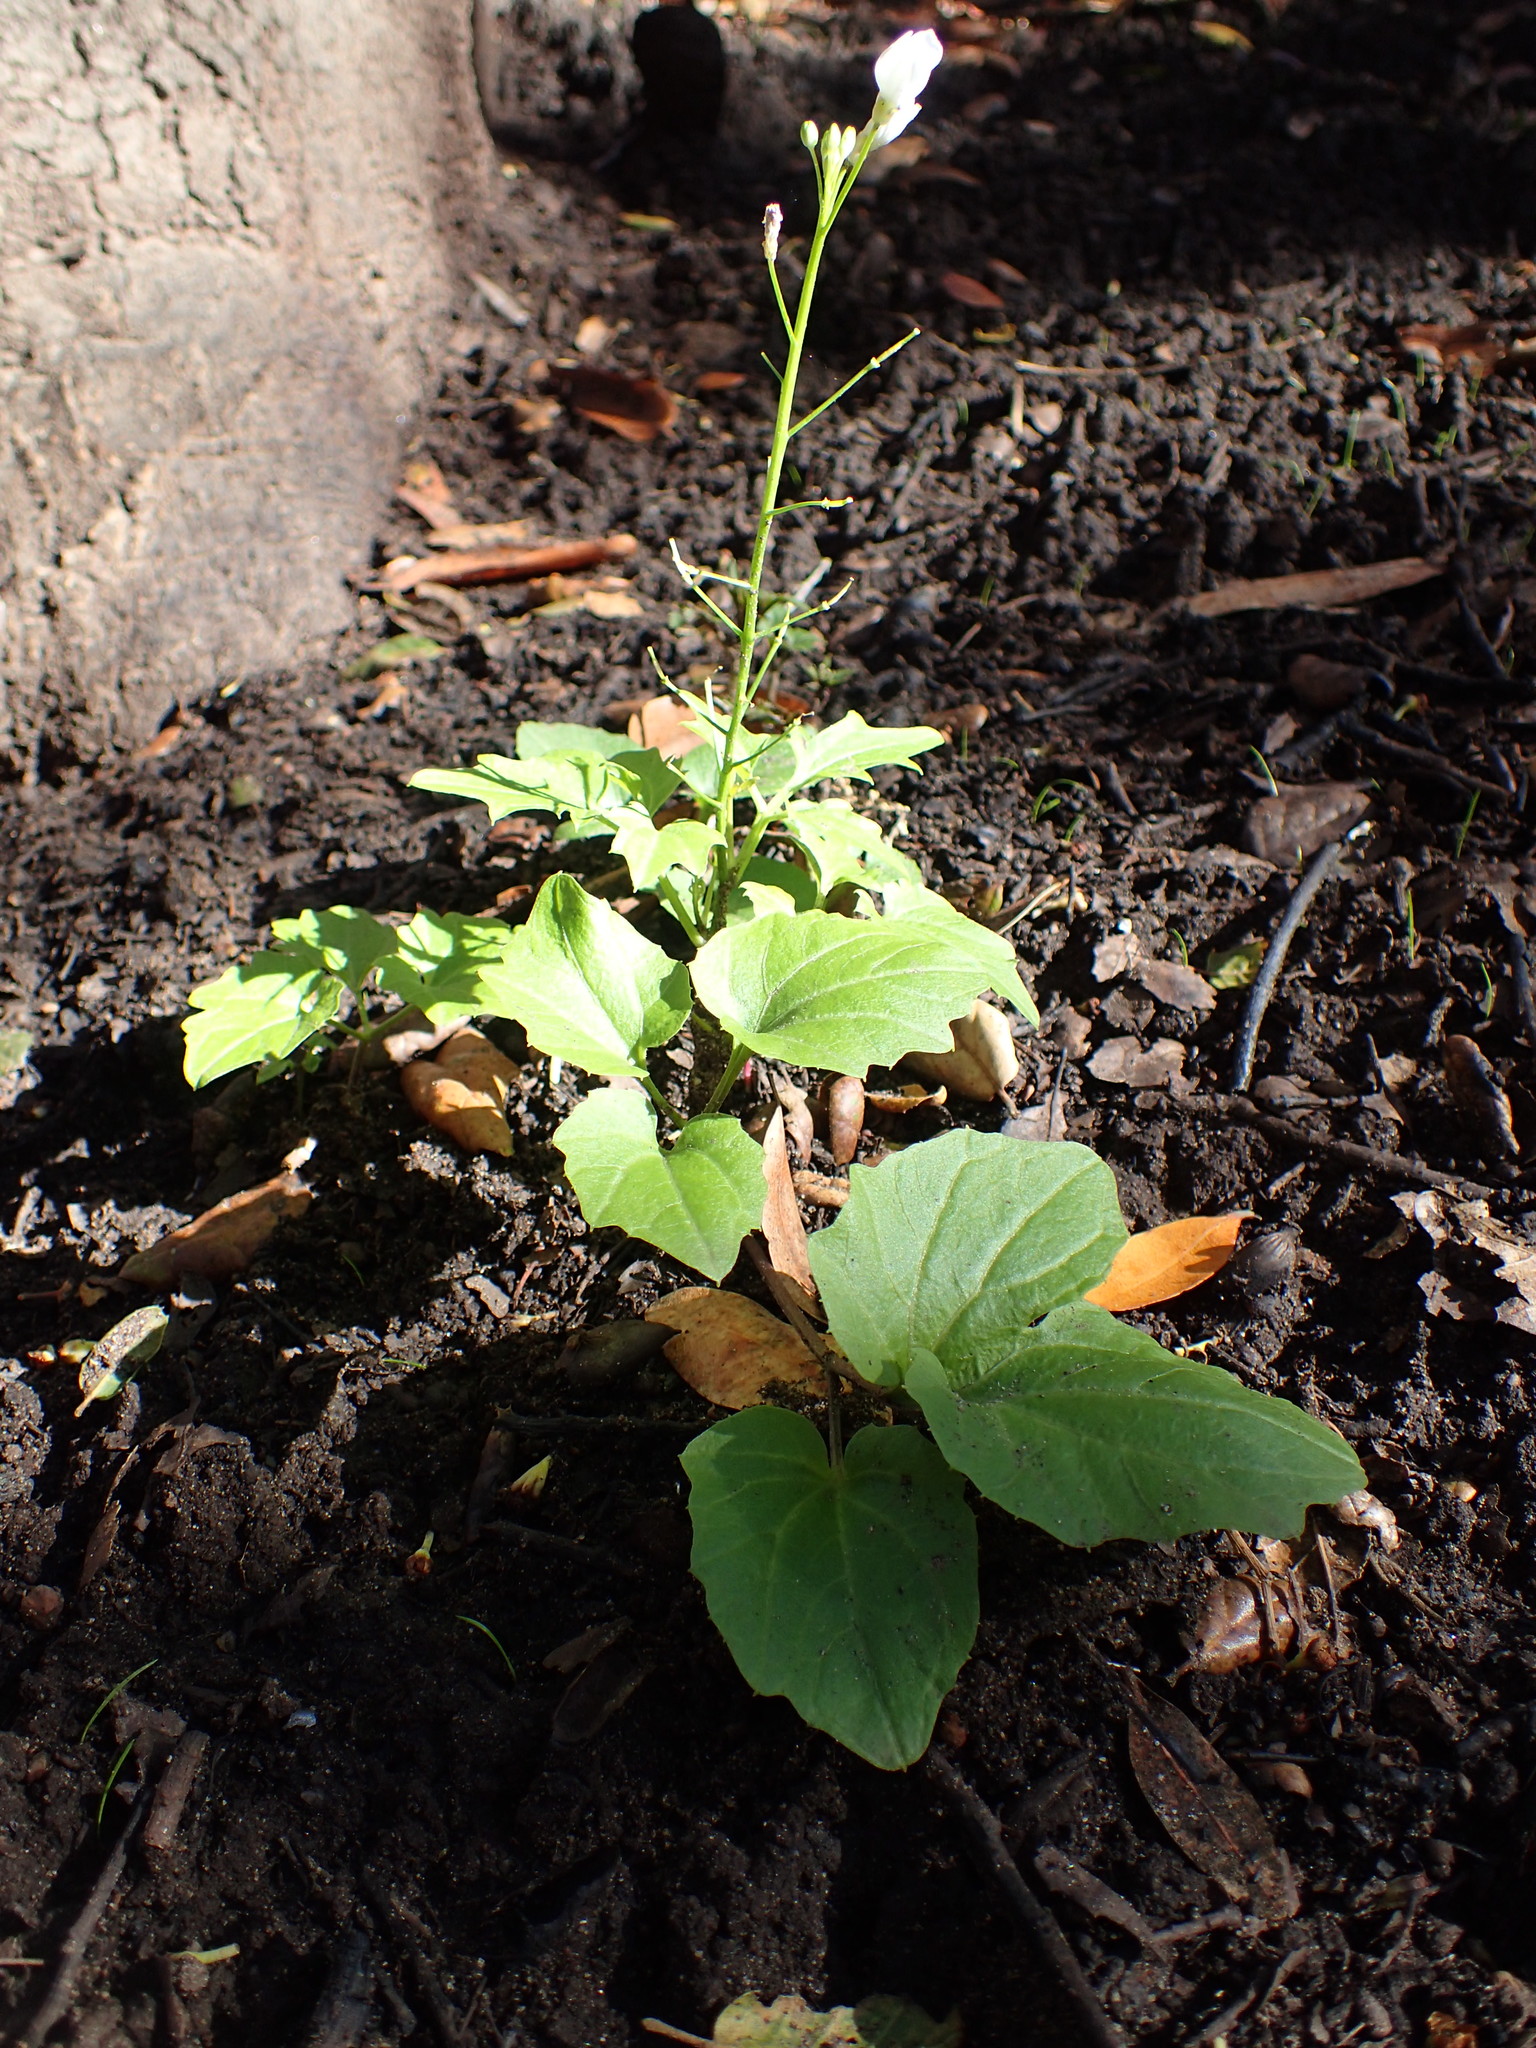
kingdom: Plantae
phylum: Tracheophyta
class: Magnoliopsida
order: Brassicales
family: Brassicaceae
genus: Cardamine
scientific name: Cardamine californica
